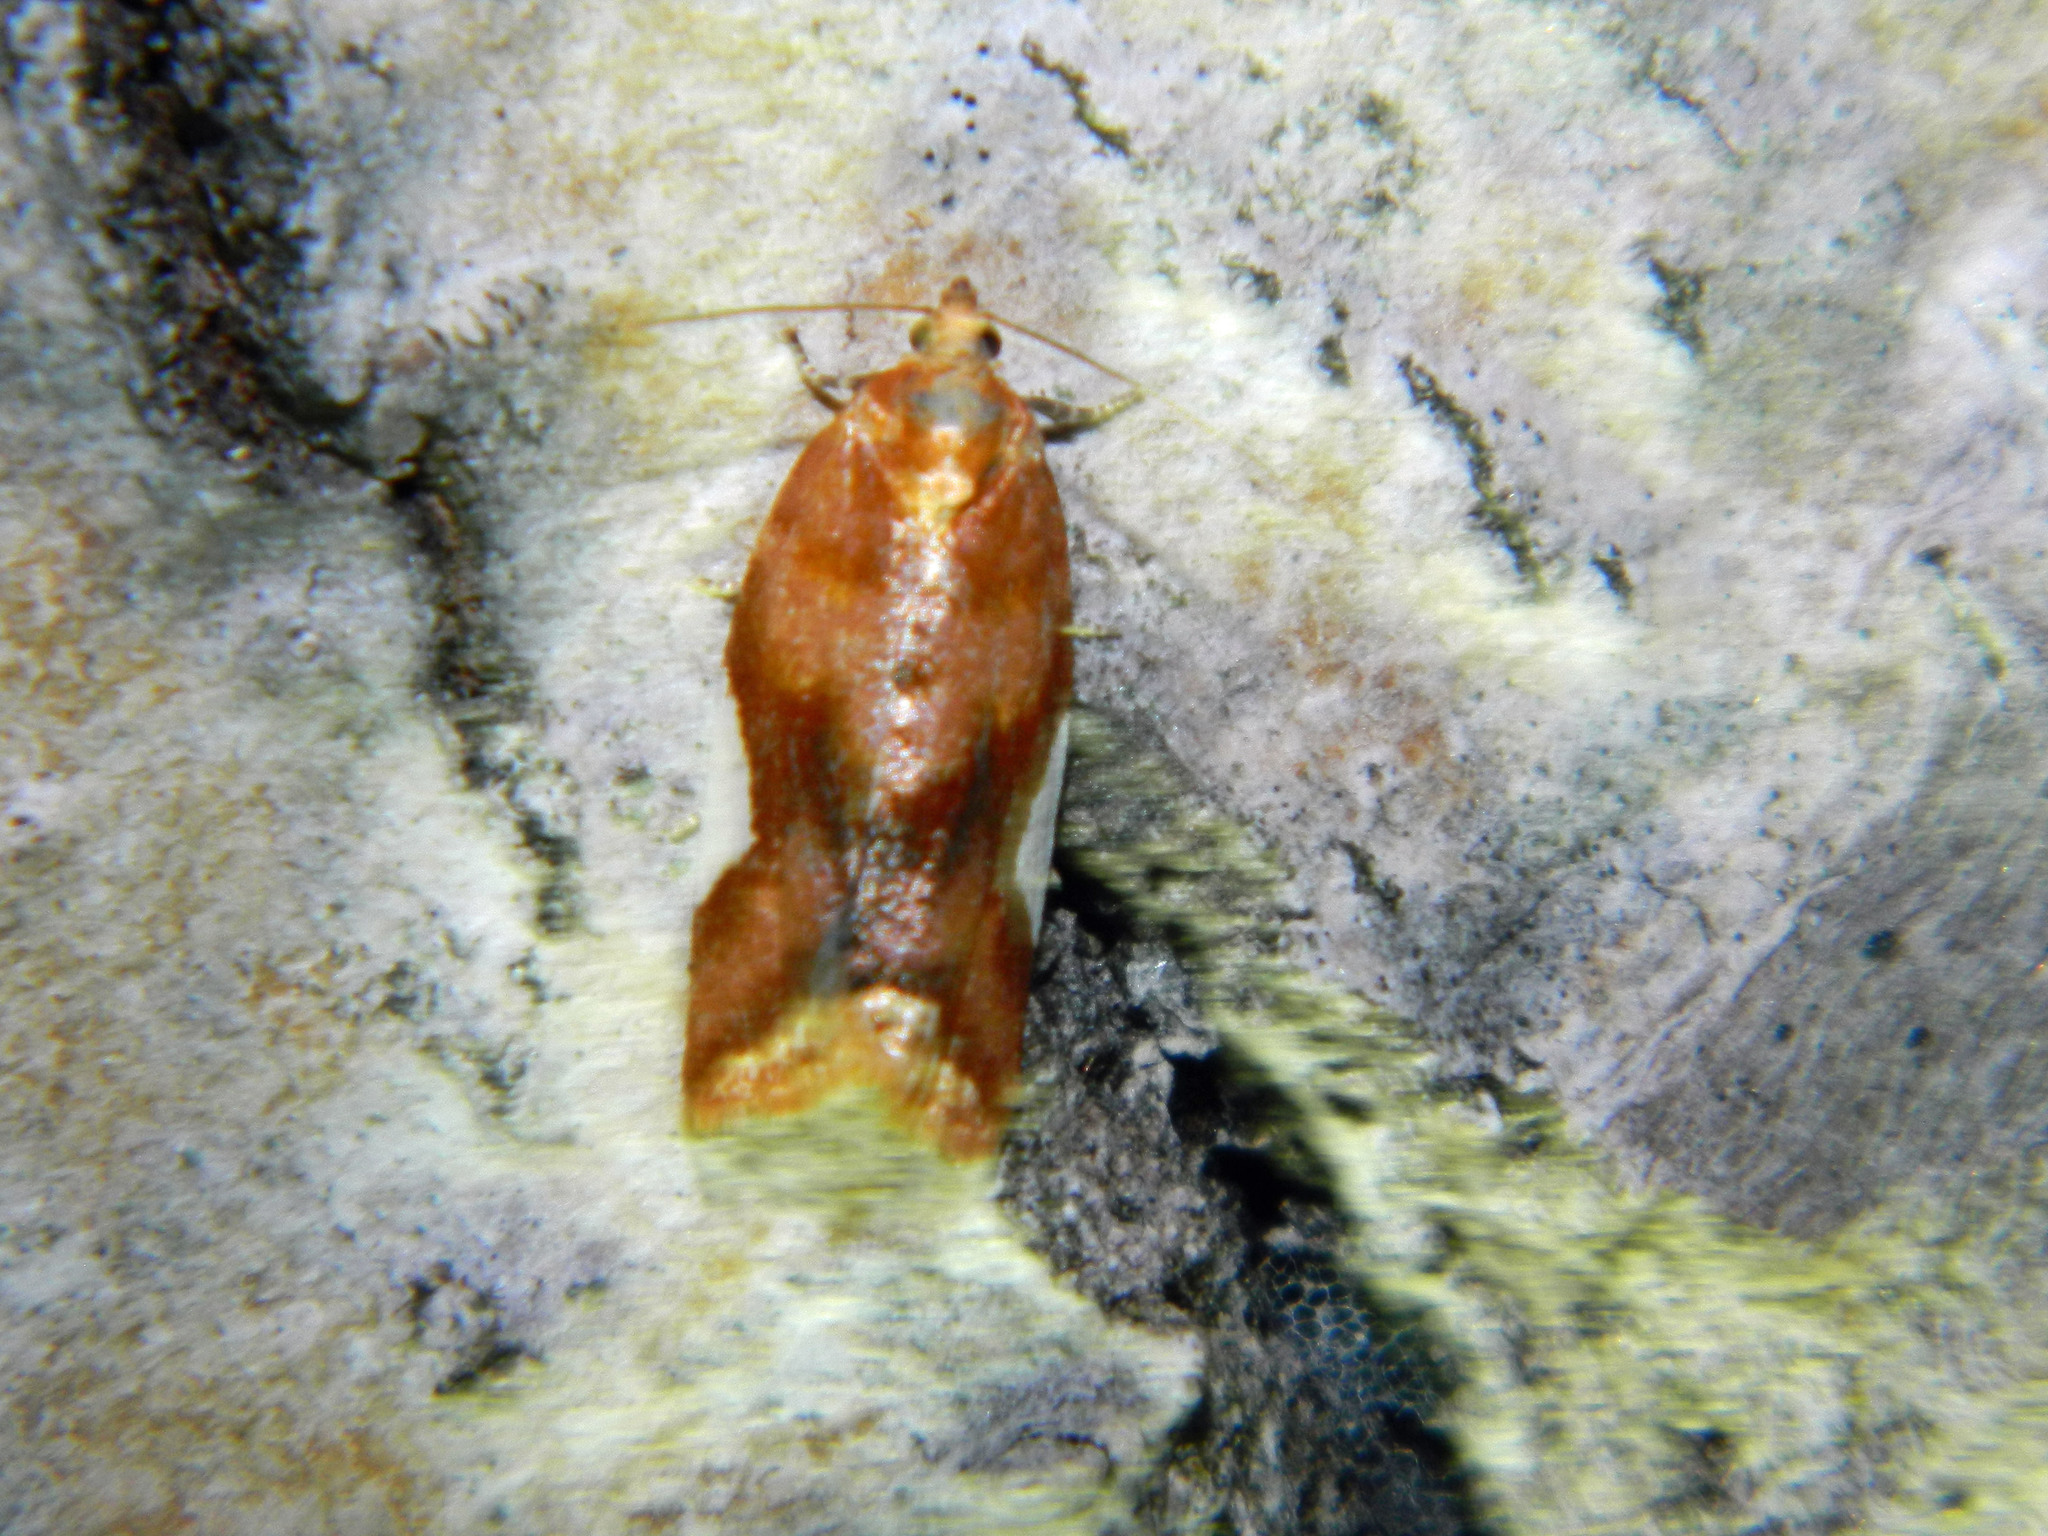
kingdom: Animalia
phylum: Arthropoda
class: Insecta
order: Lepidoptera
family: Tortricidae
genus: Clepsis
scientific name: Clepsis persicana
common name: White triangle tortrix
